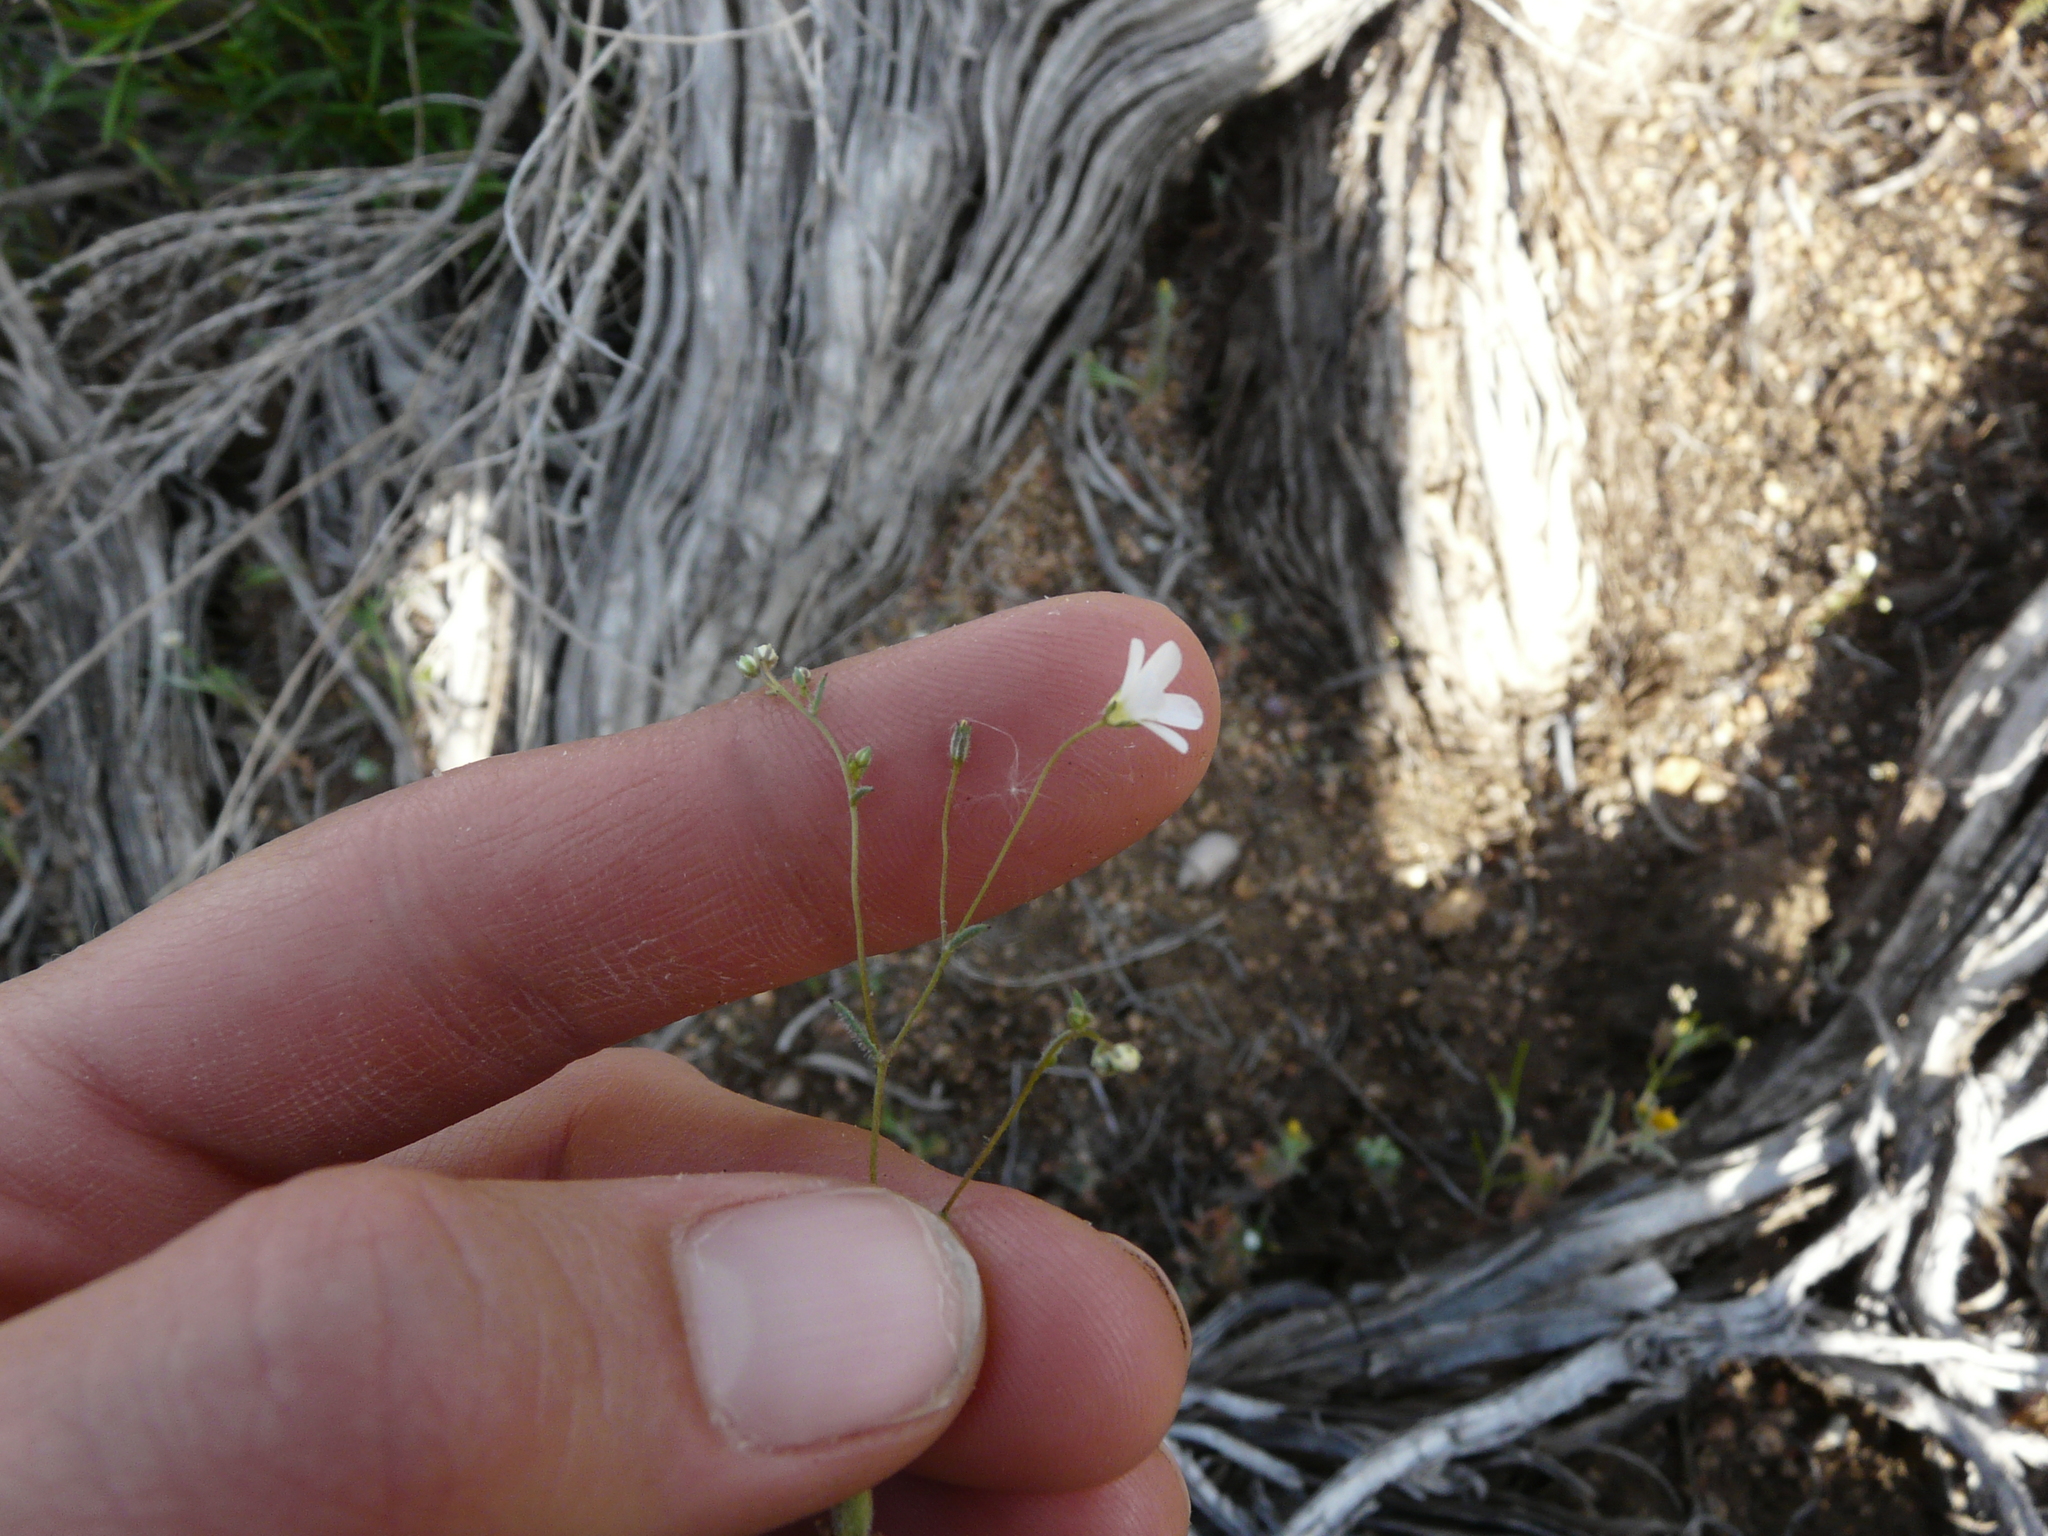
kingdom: Plantae
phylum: Tracheophyta
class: Magnoliopsida
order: Ericales
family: Polemoniaceae
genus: Linanthus
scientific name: Linanthus inyoensis
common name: Inyo gilia
